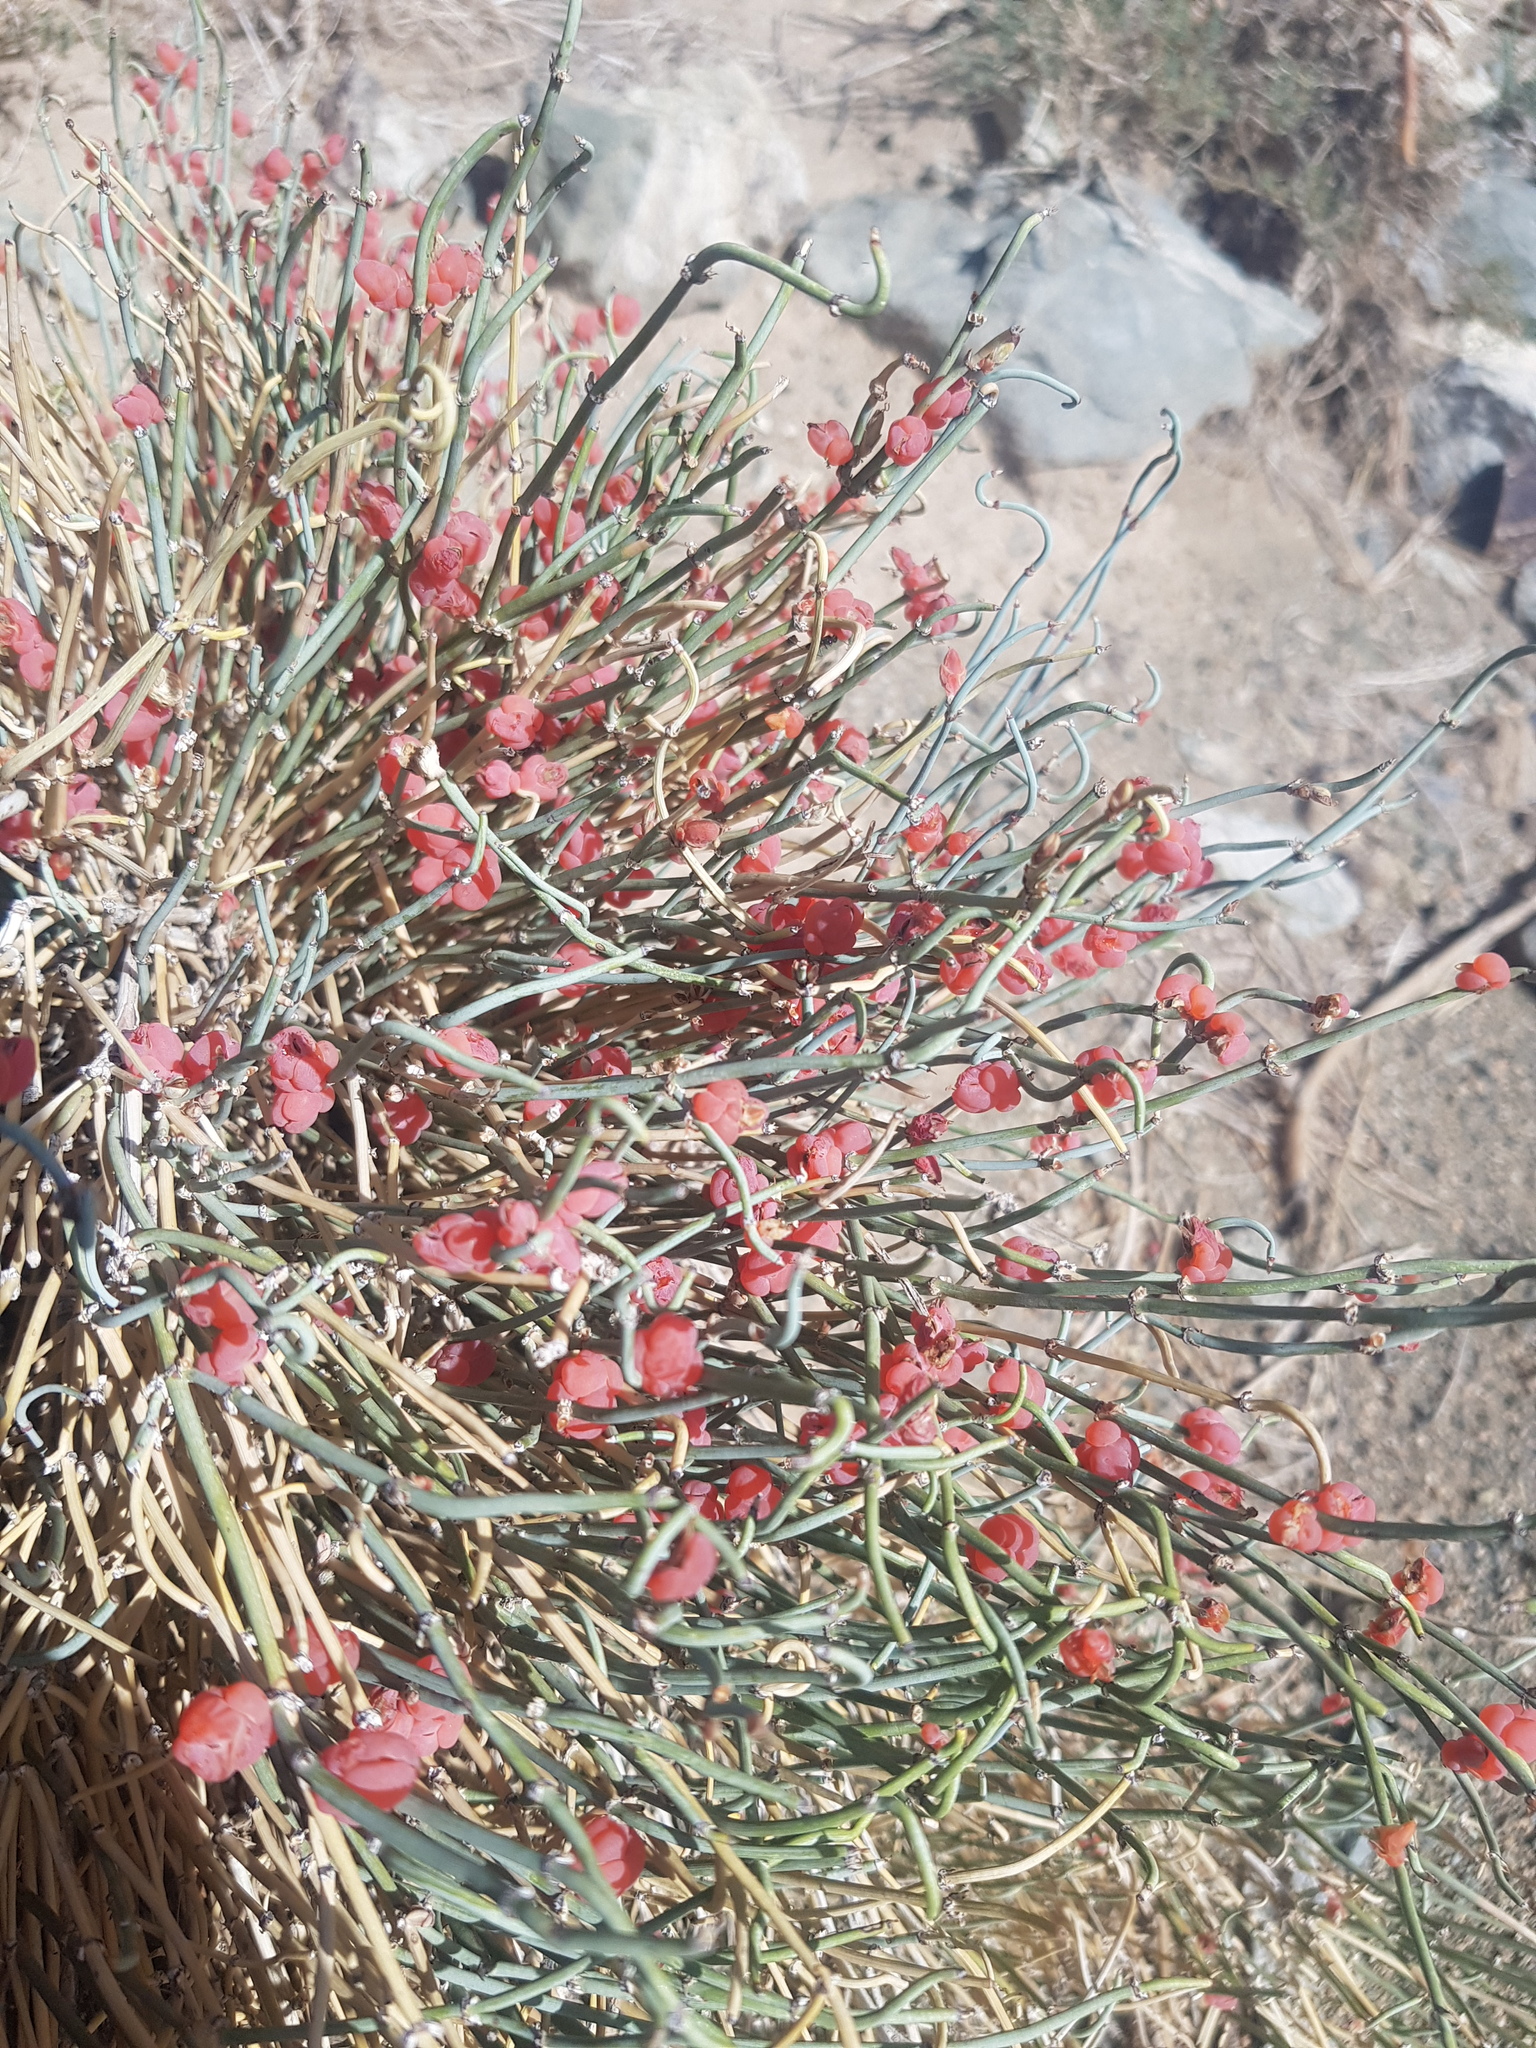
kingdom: Plantae
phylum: Tracheophyta
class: Gnetopsida
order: Ephedrales
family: Ephedraceae
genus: Ephedra
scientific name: Ephedra equisetina
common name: Mongolian ephedra
